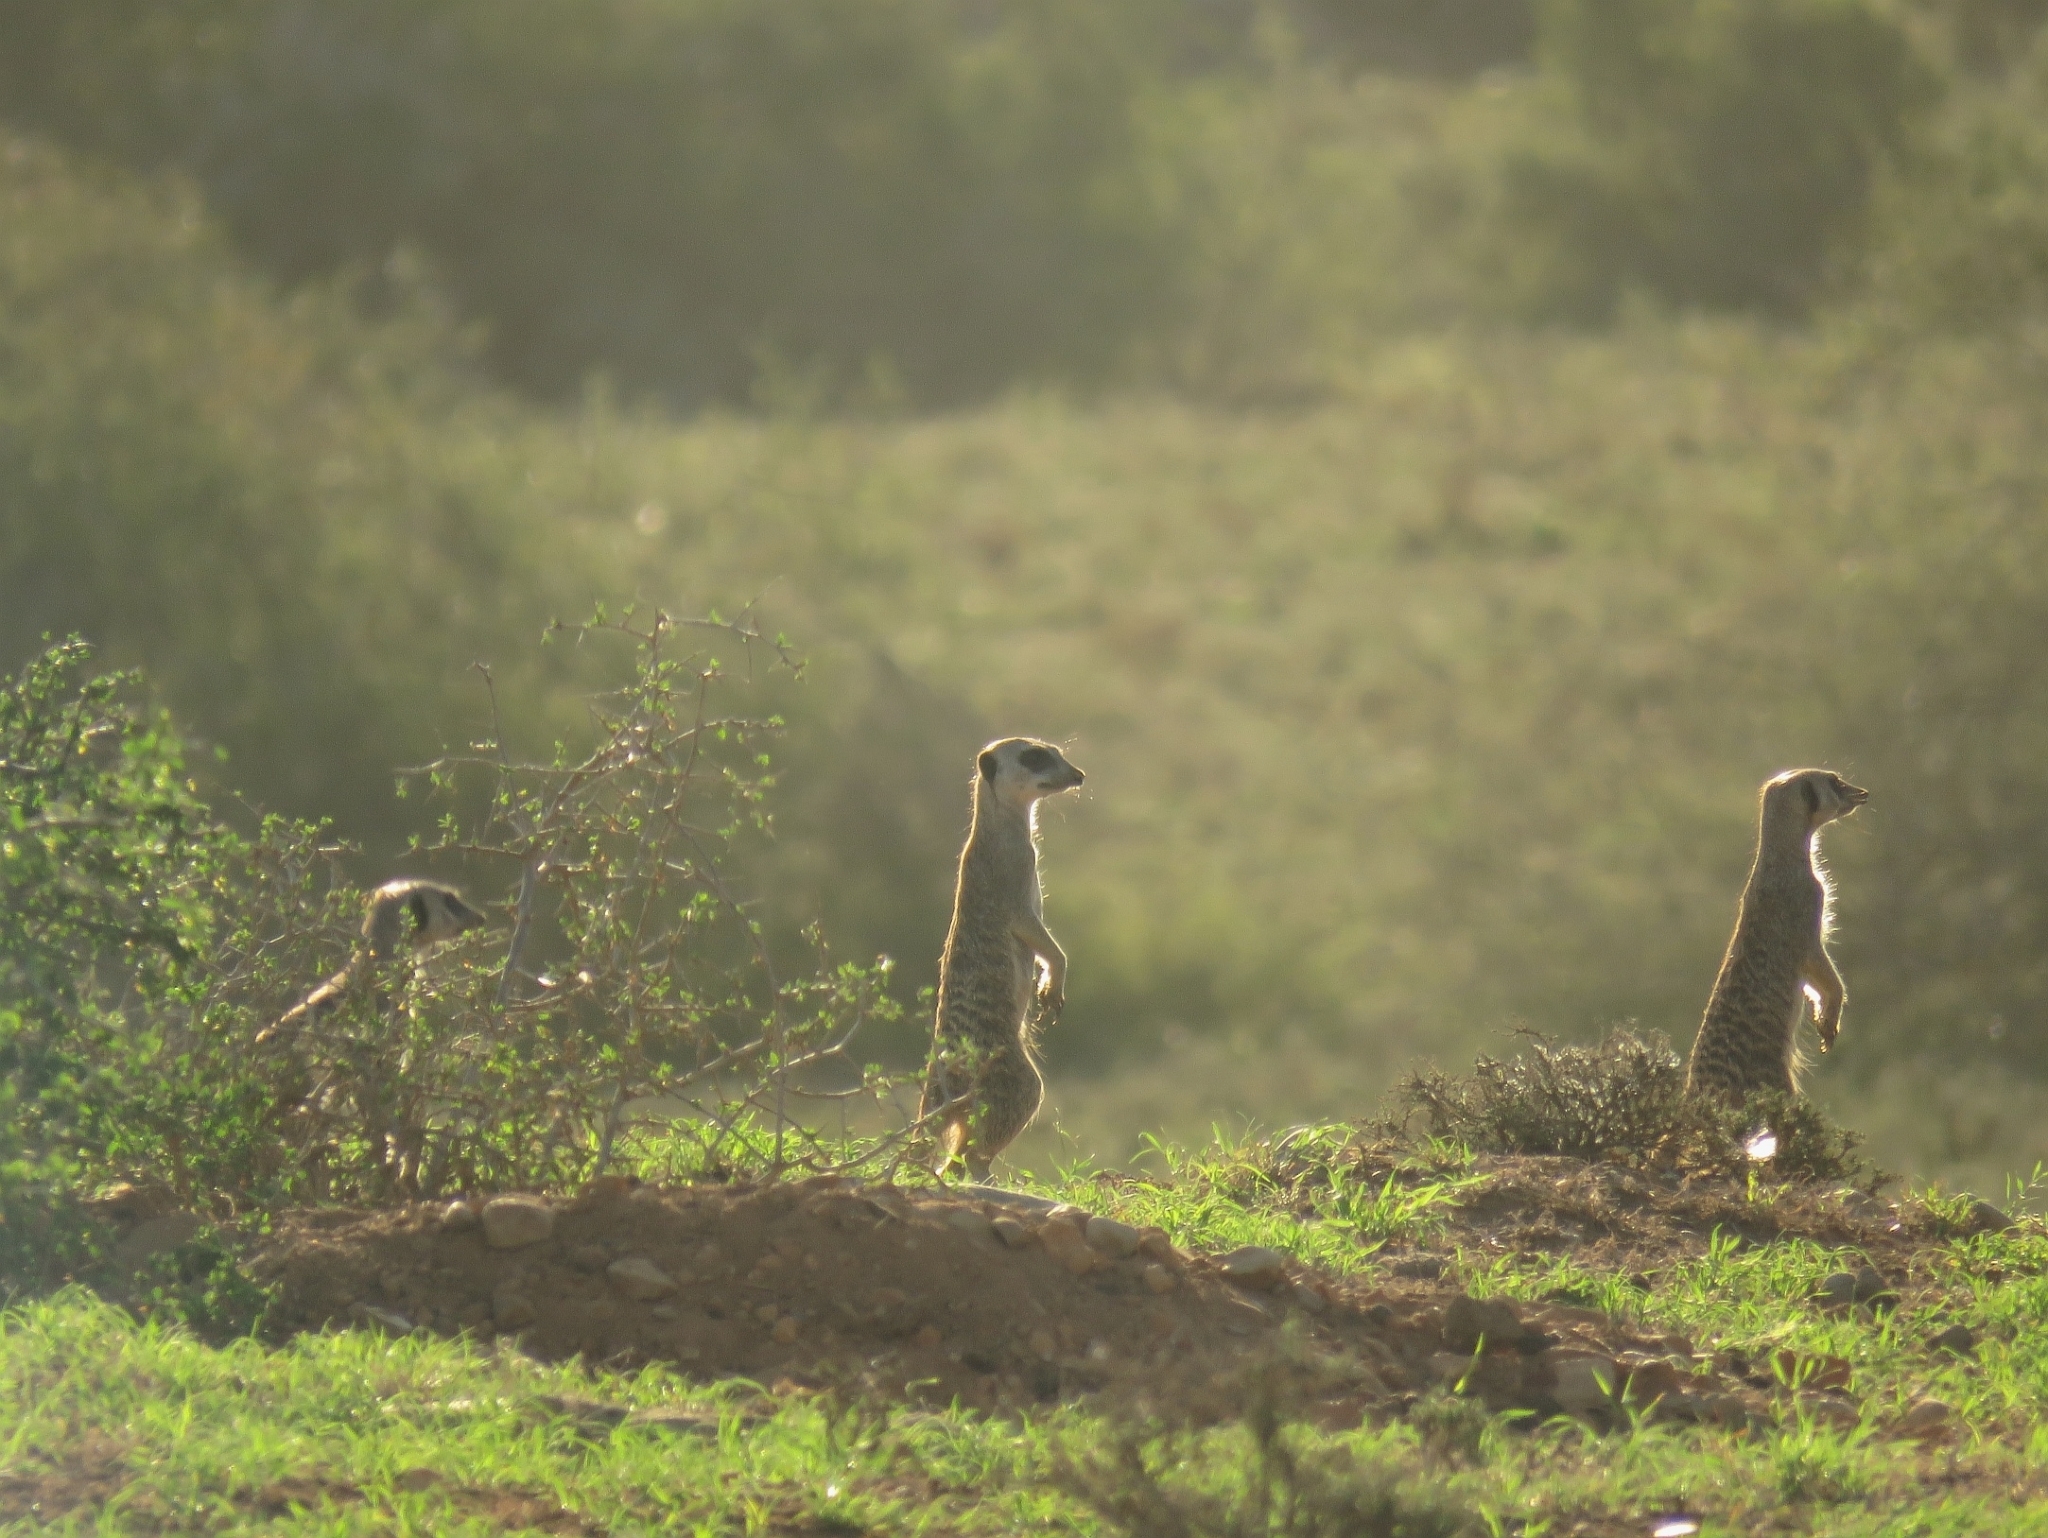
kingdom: Animalia
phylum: Chordata
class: Mammalia
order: Carnivora
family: Herpestidae
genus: Suricata
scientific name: Suricata suricatta
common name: Meerkat
